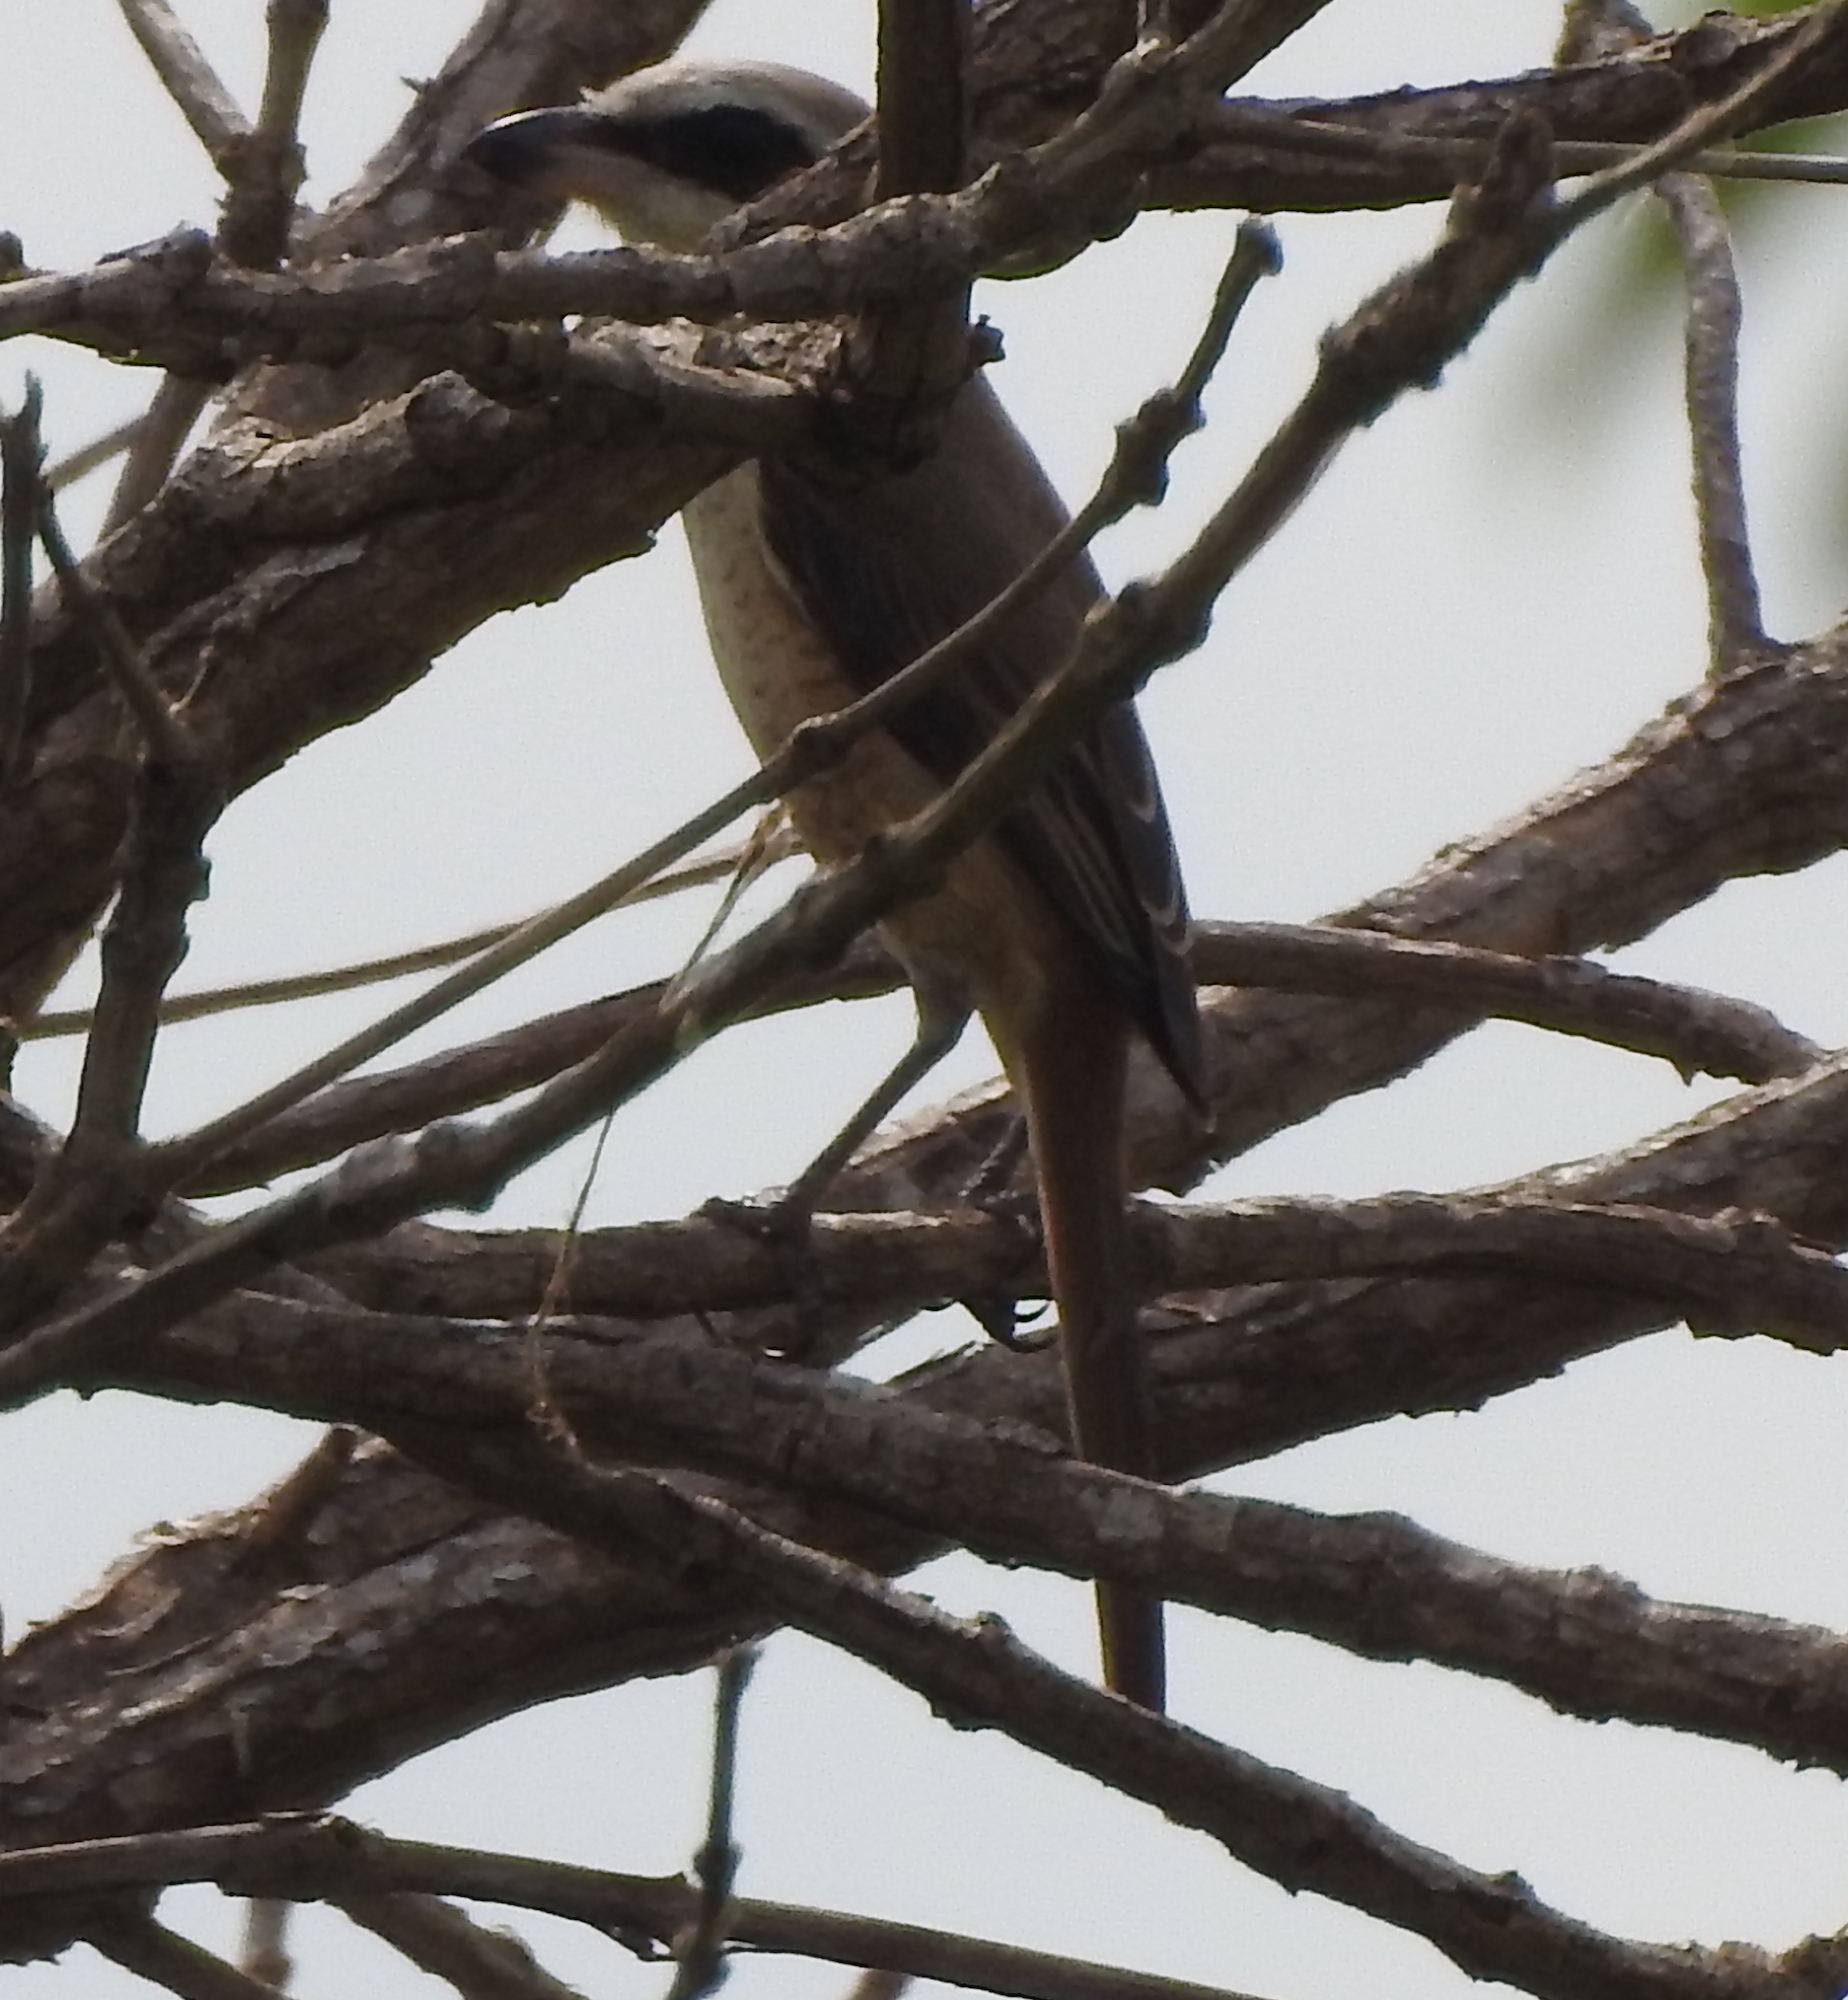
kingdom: Animalia
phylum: Chordata
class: Aves
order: Passeriformes
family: Laniidae
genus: Lanius
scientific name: Lanius cristatus
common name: Brown shrike
